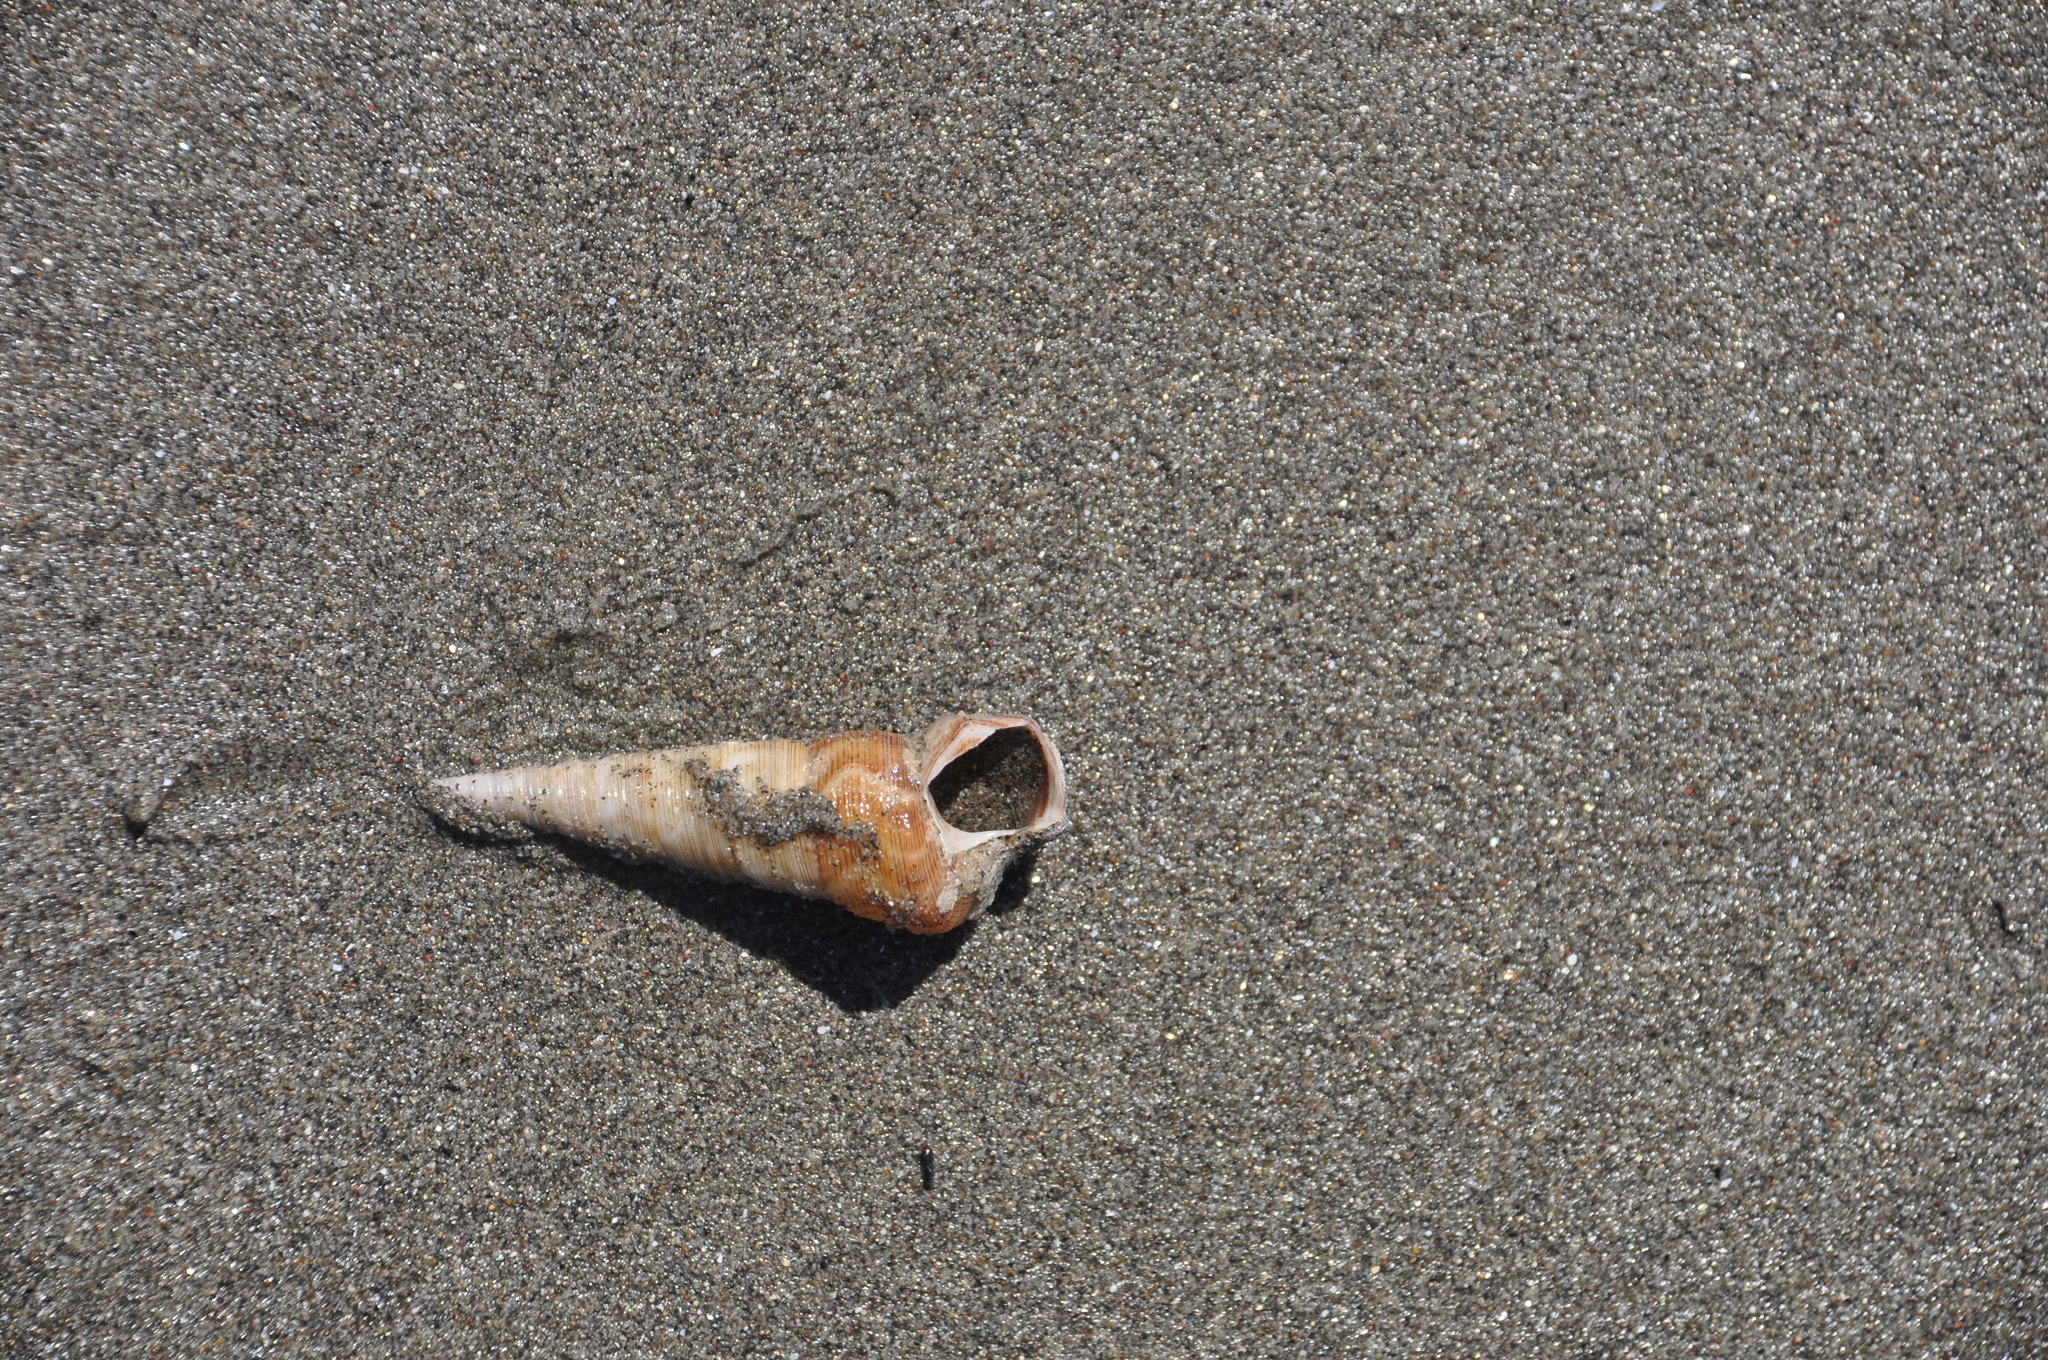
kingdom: Animalia
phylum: Mollusca
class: Gastropoda
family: Turritellidae
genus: Maoricolpus
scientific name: Maoricolpus roseus
